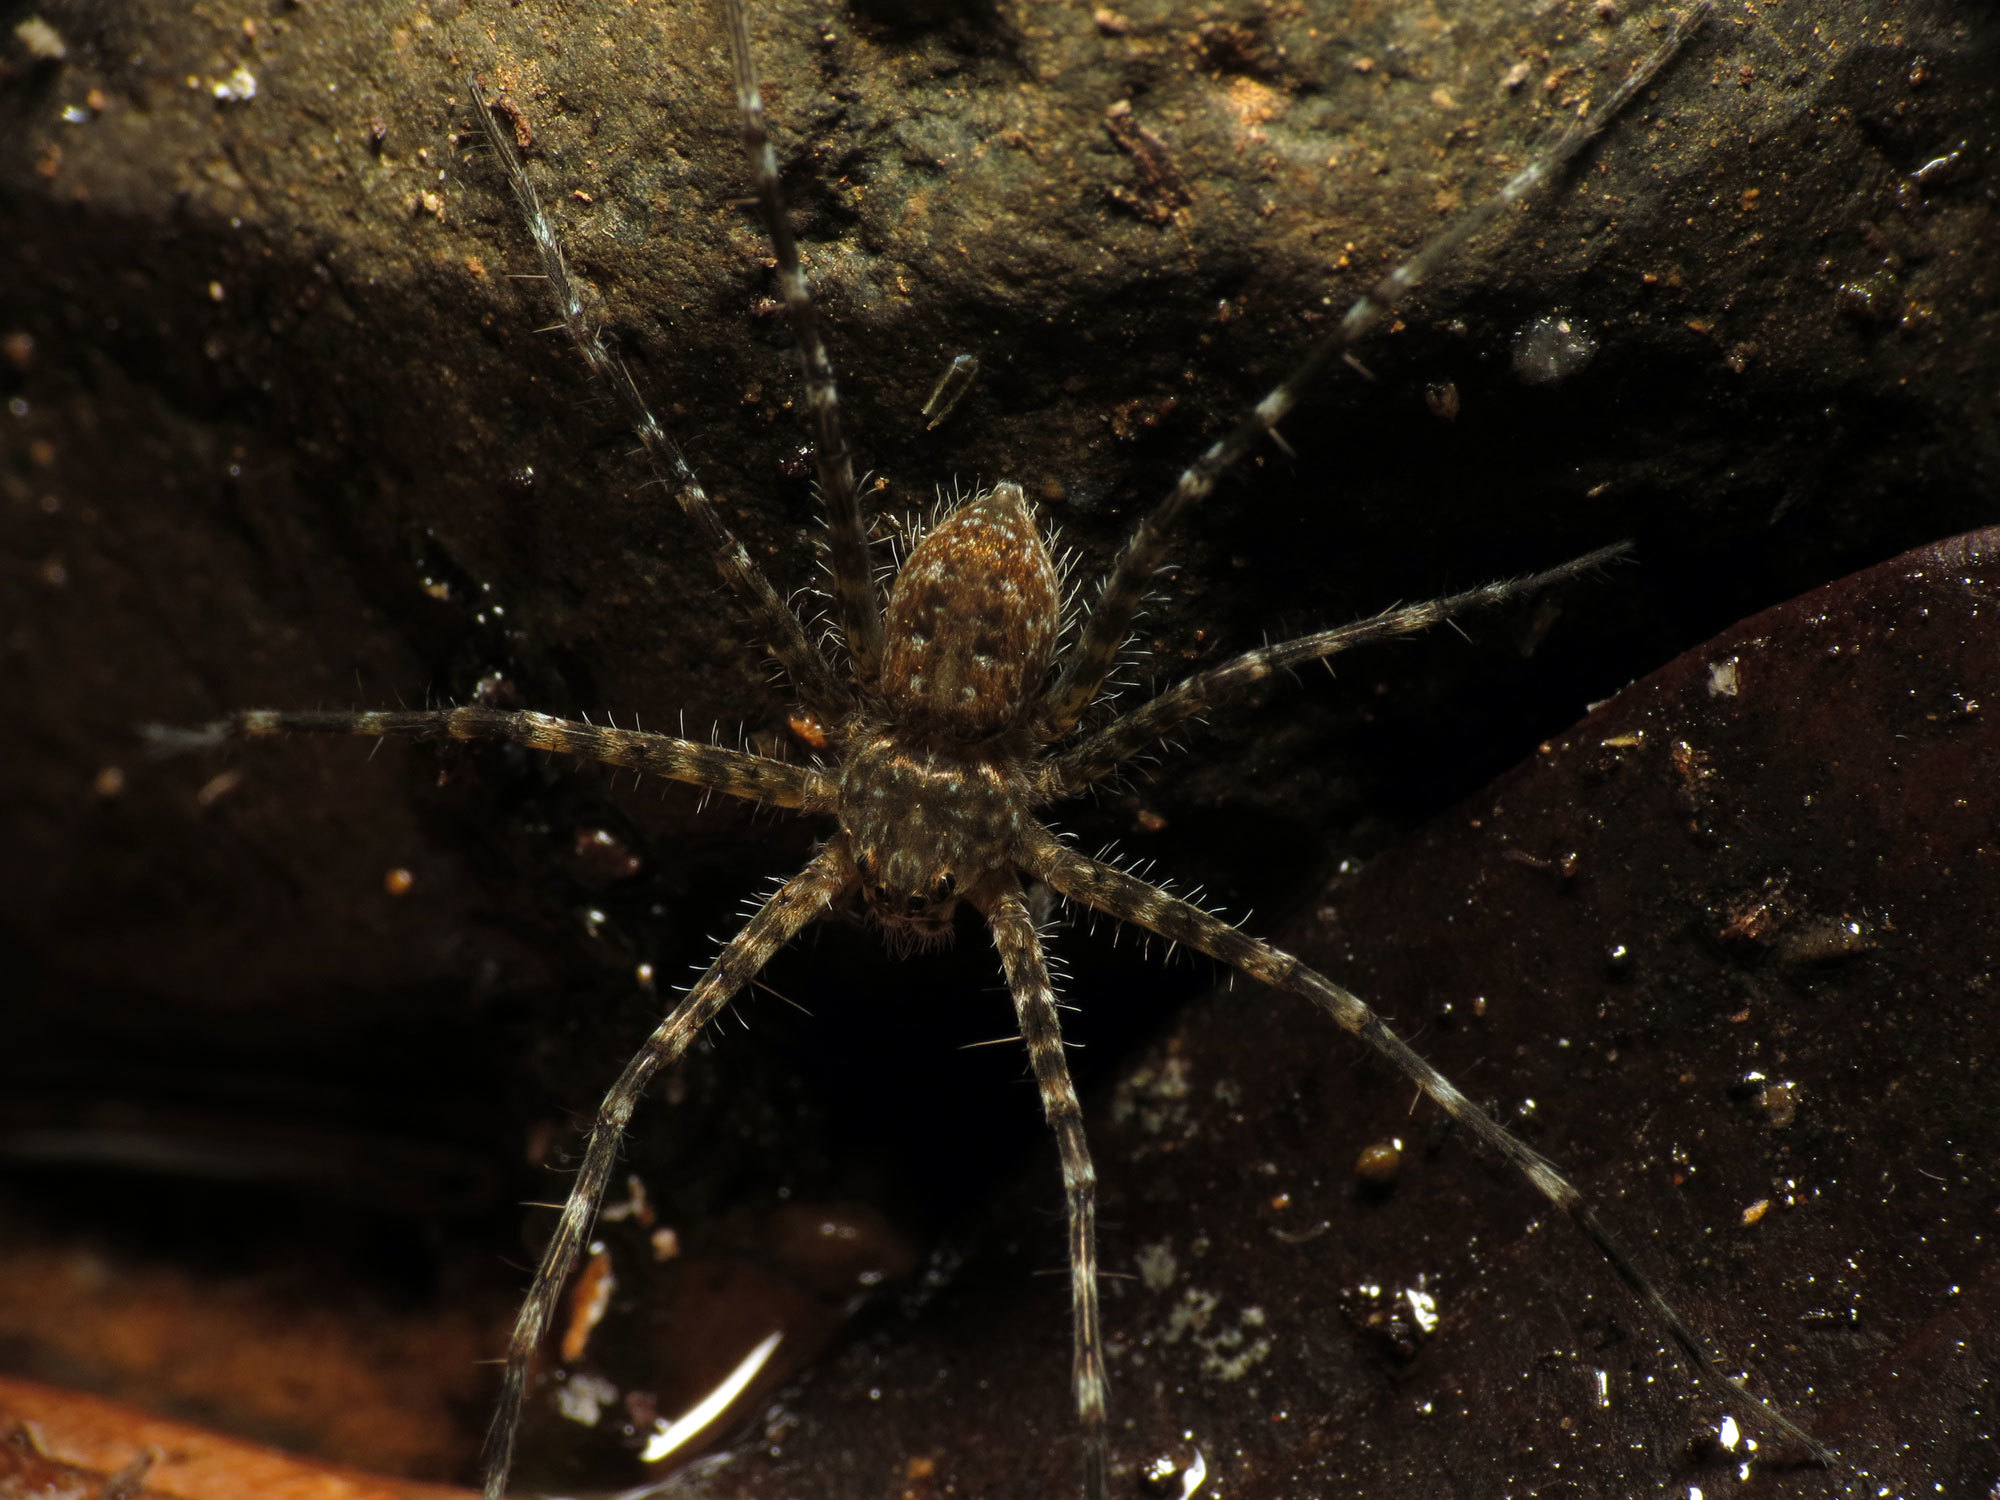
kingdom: Animalia
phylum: Arthropoda
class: Arachnida
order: Araneae
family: Trechaleidae
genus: Trechalea
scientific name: Trechalea extensa
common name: Long legged water spiders
